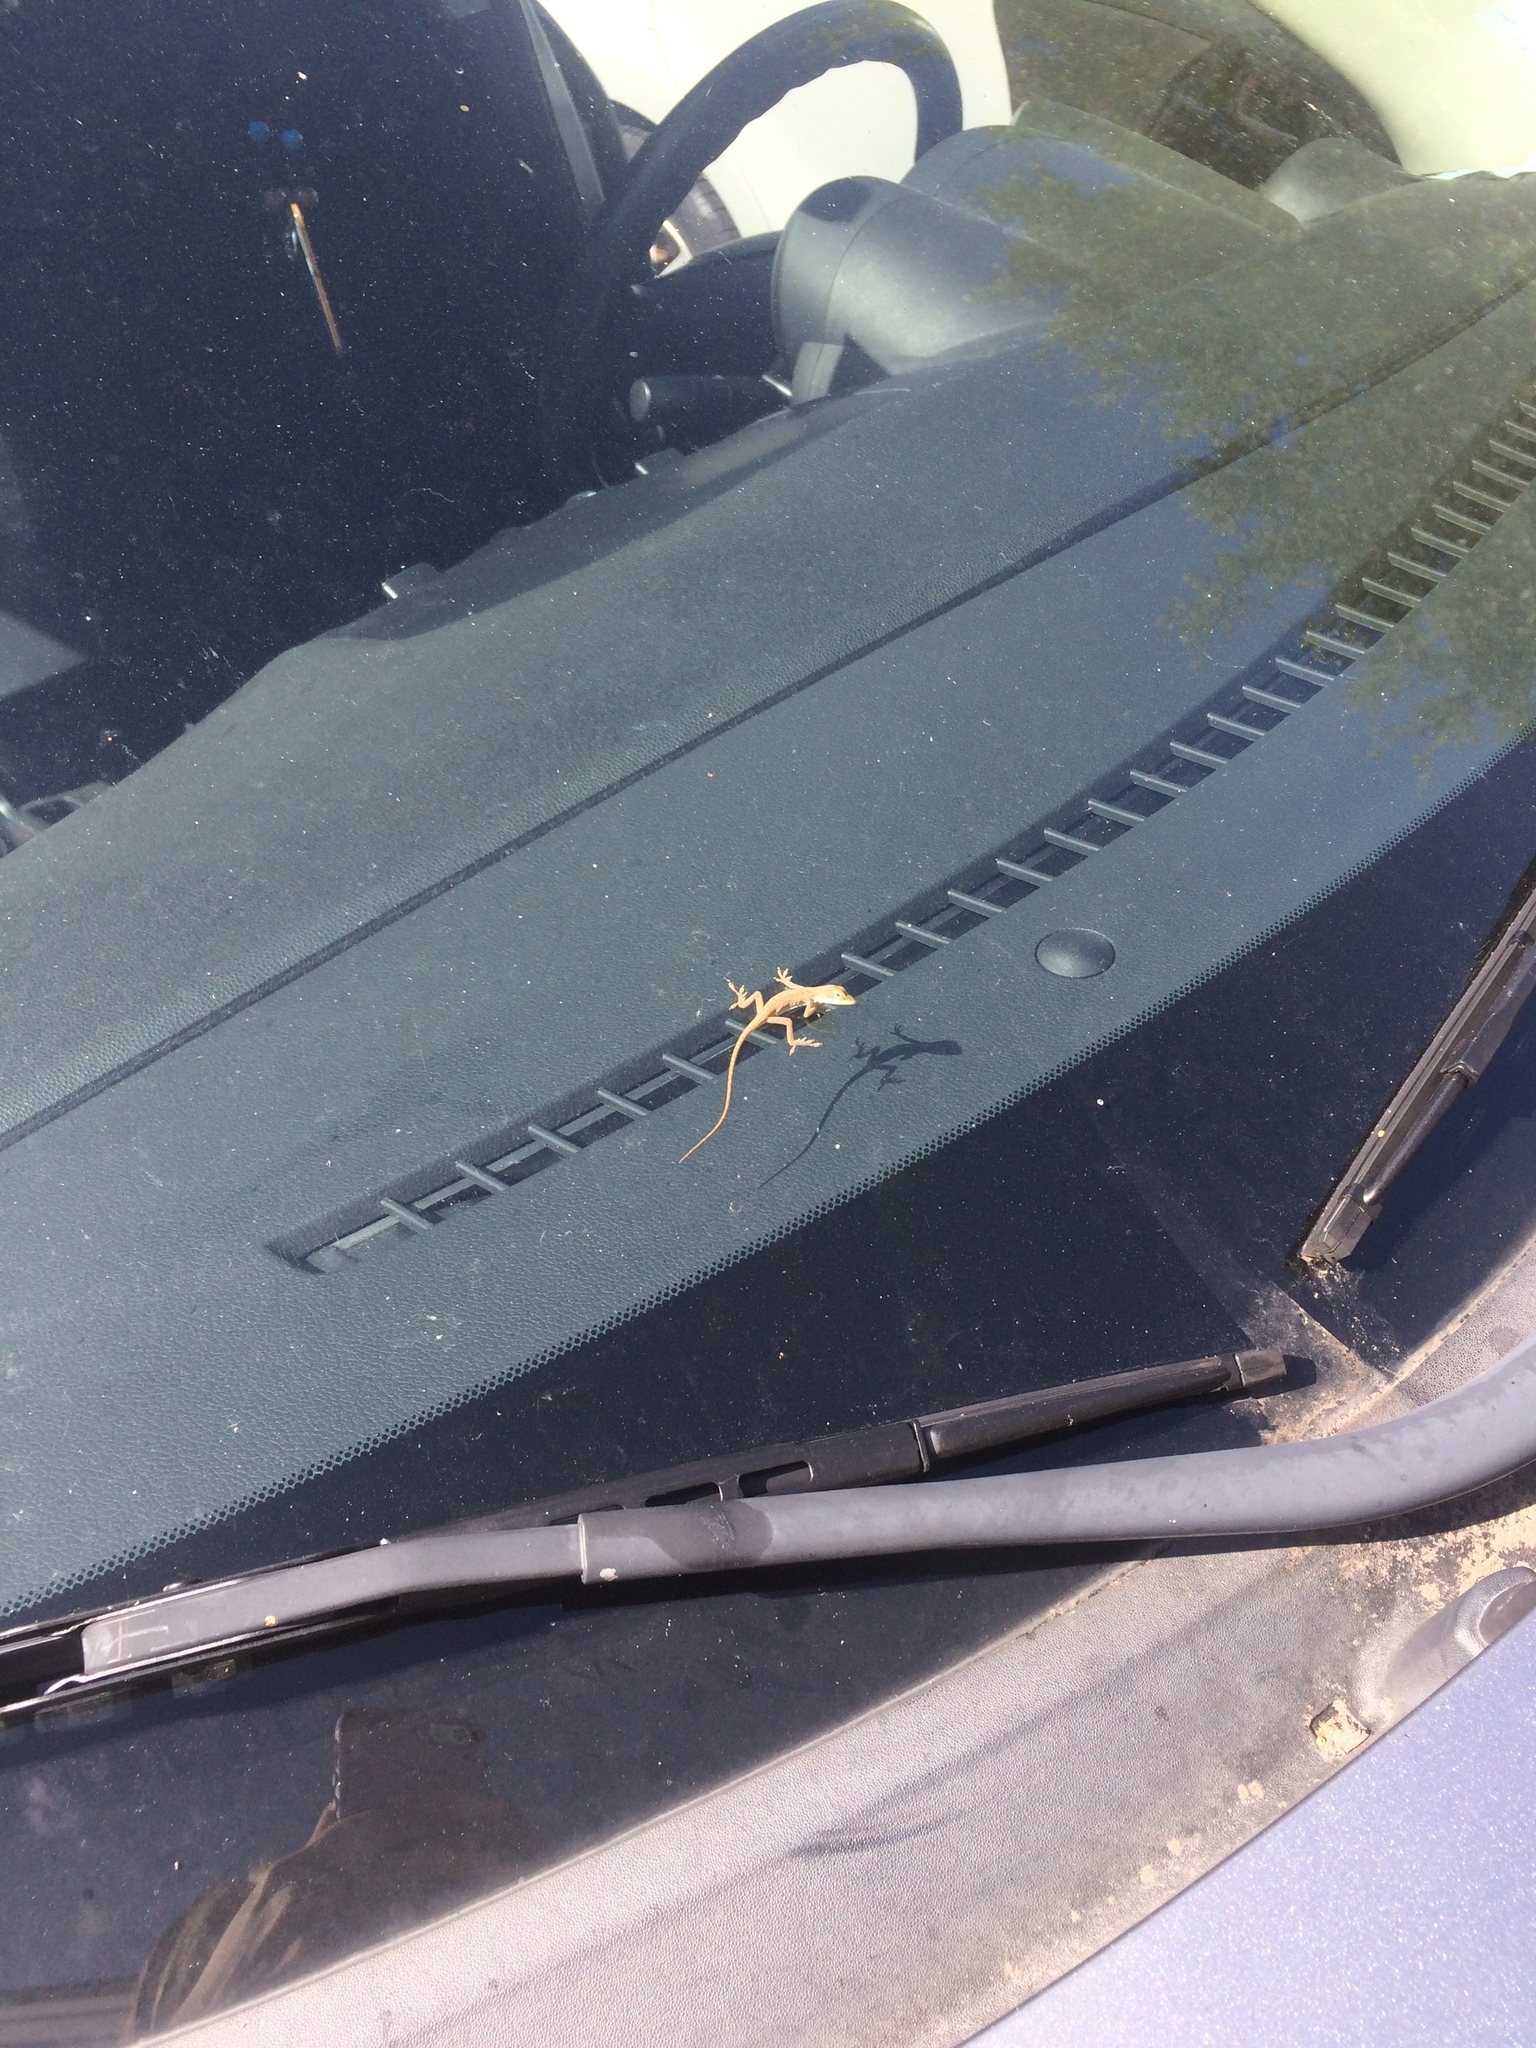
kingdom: Animalia
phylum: Chordata
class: Squamata
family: Dactyloidae
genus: Anolis
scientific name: Anolis carolinensis
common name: Green anole
